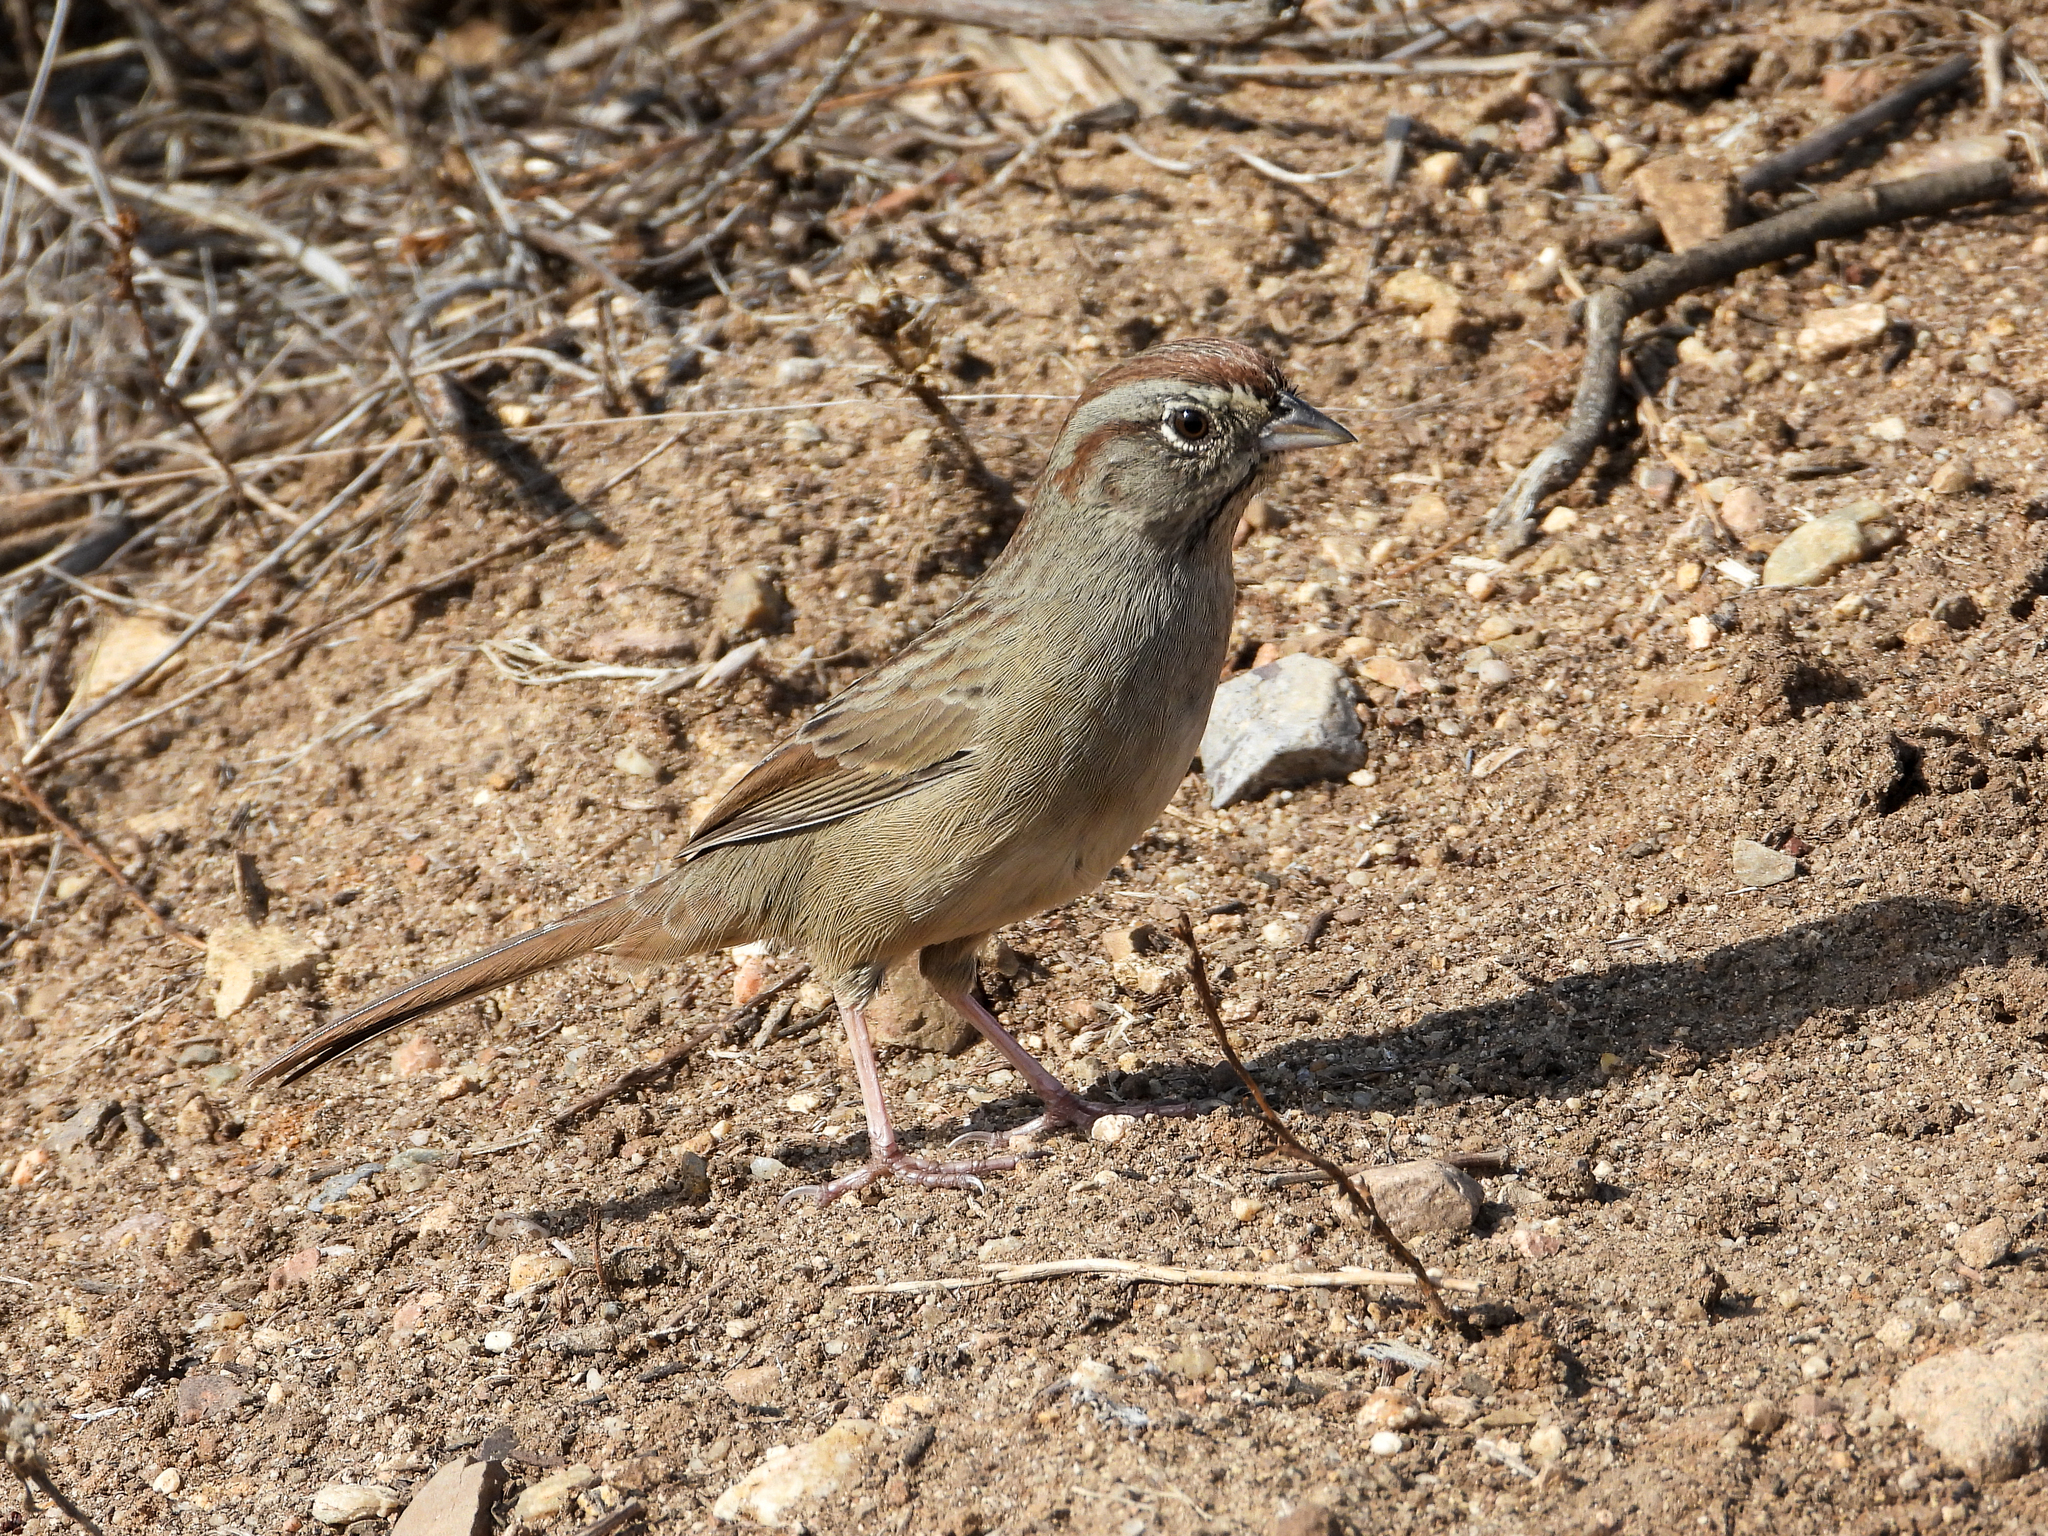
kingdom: Animalia
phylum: Chordata
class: Aves
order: Passeriformes
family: Passerellidae
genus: Aimophila
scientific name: Aimophila ruficeps
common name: Rufous-crowned sparrow
